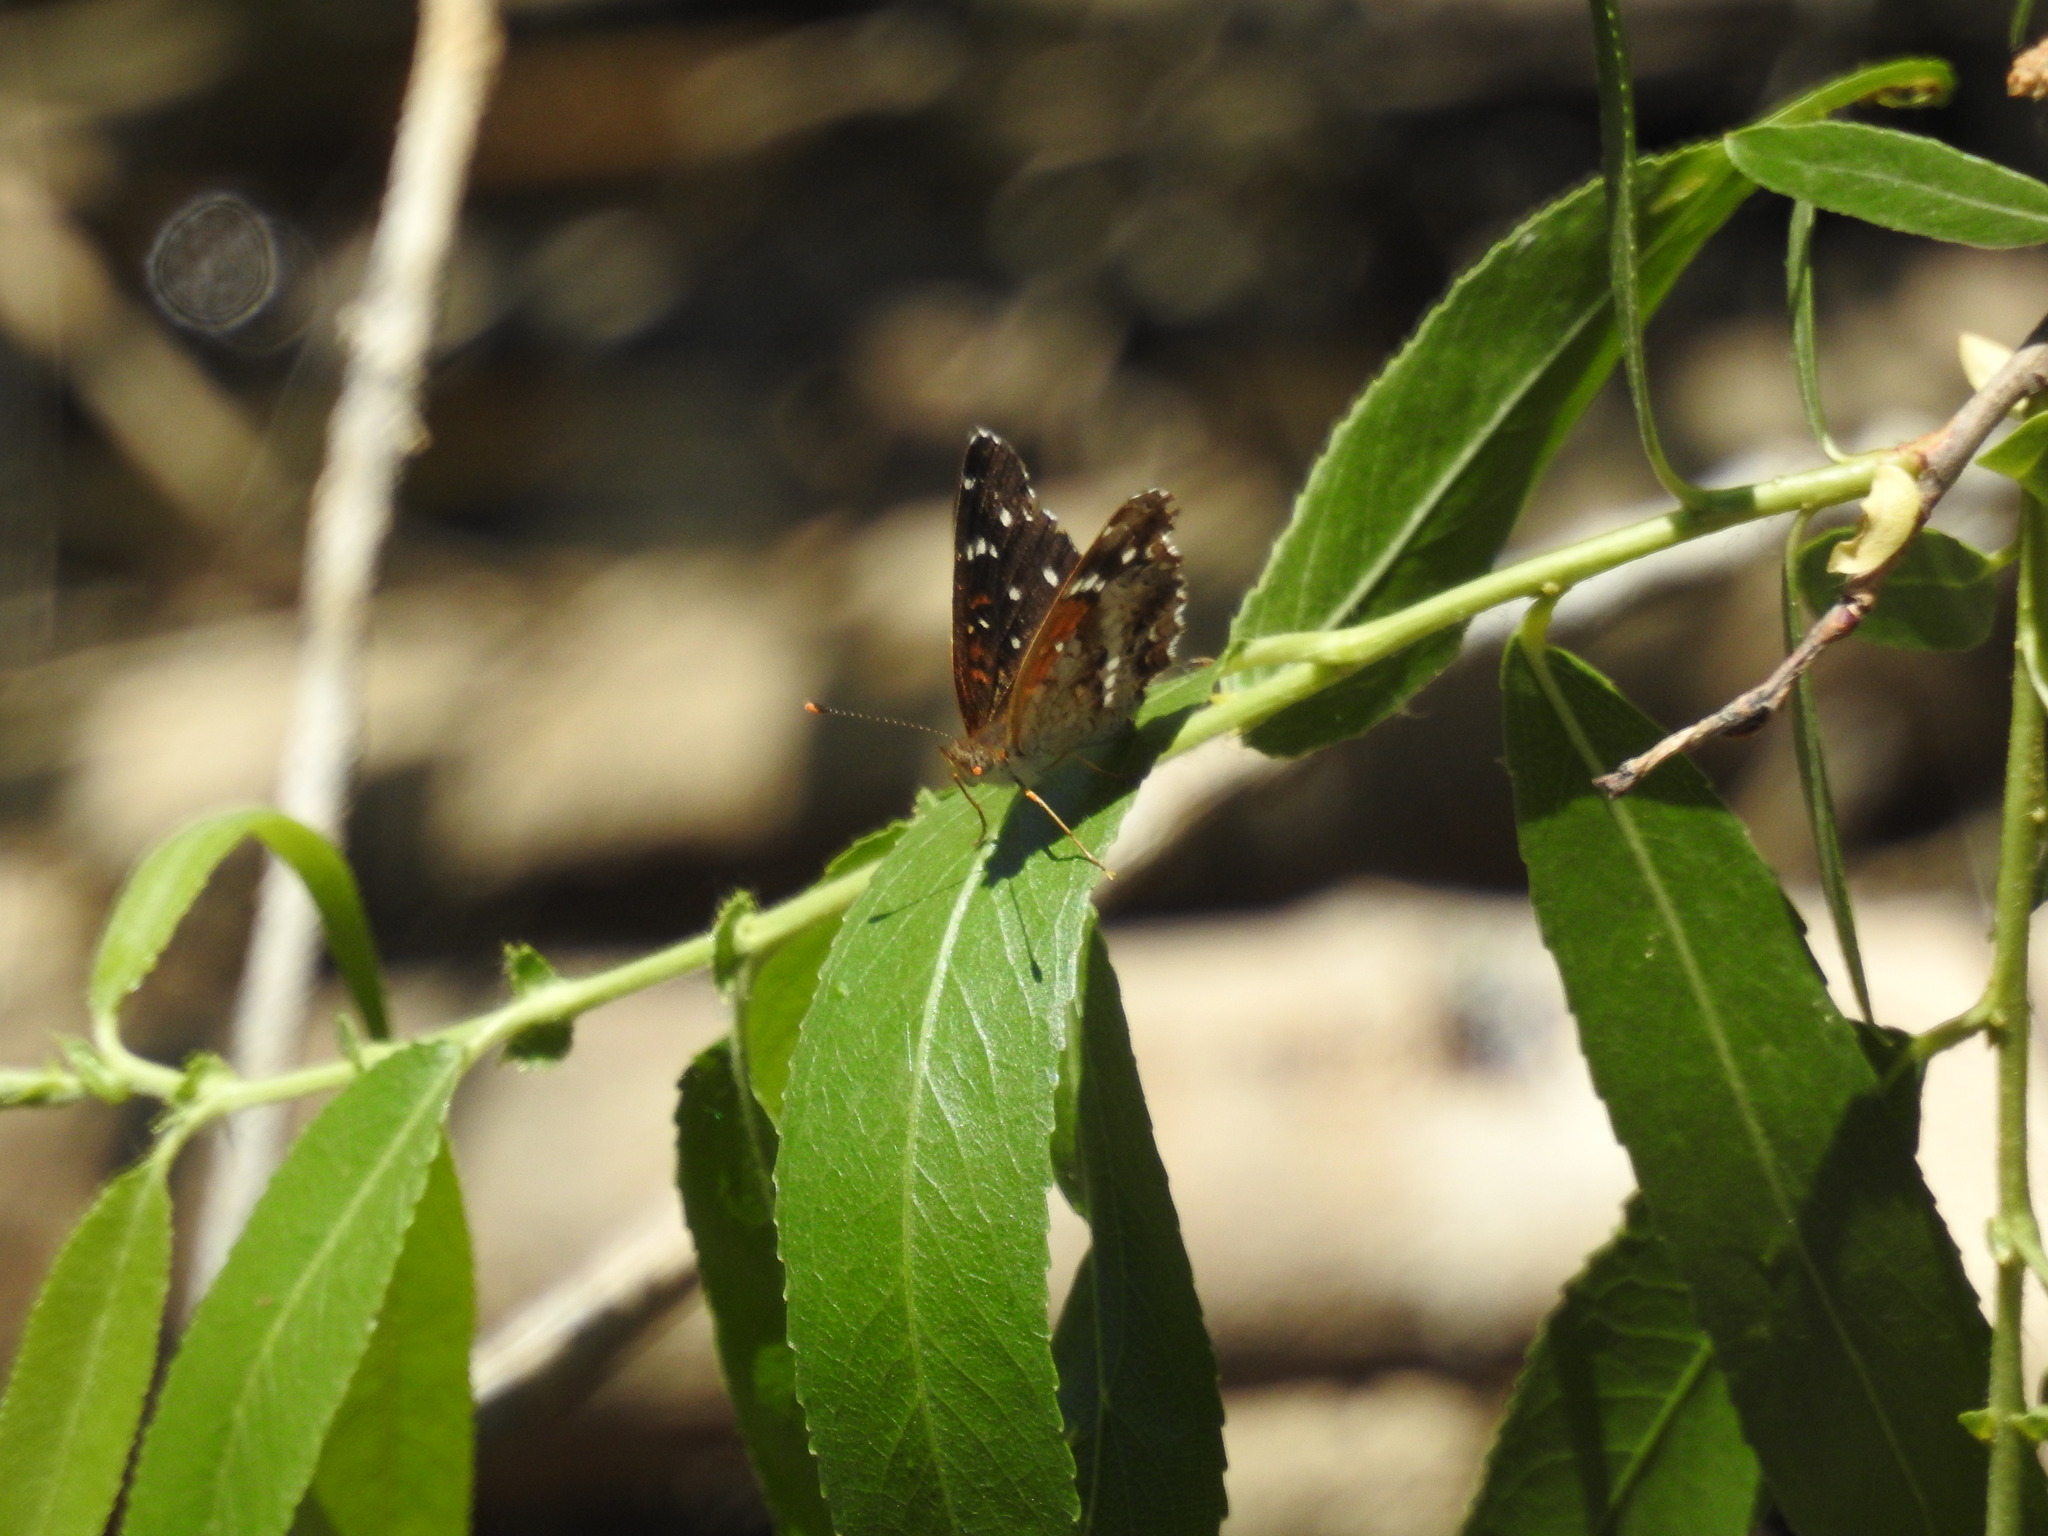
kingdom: Animalia
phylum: Arthropoda
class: Insecta
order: Lepidoptera
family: Nymphalidae
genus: Anthanassa
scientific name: Anthanassa texana
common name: Texan crescent
